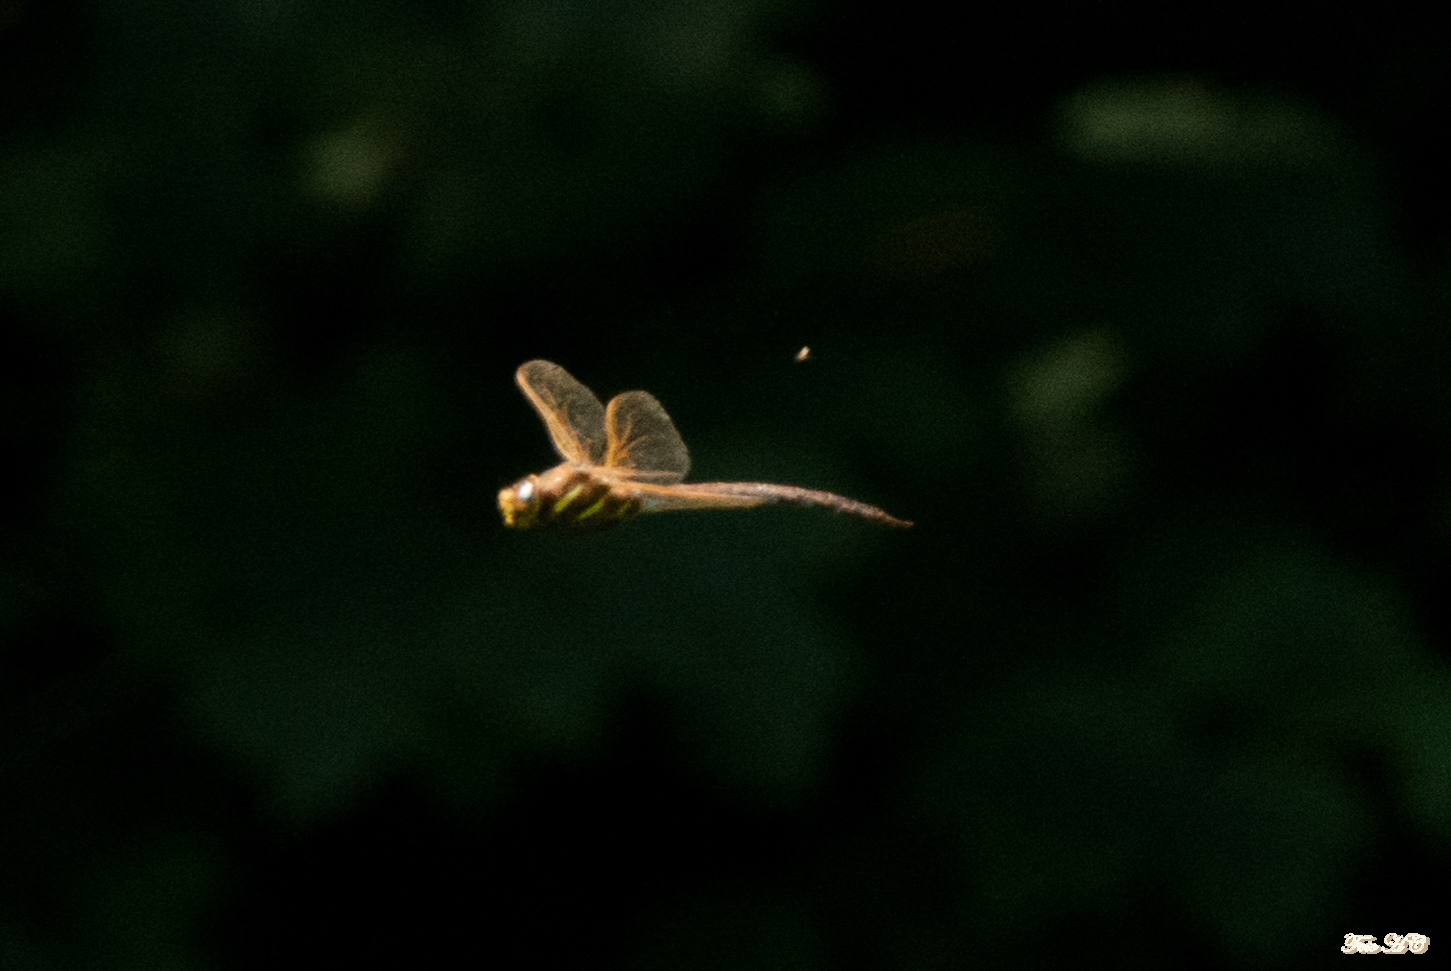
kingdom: Animalia
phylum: Arthropoda
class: Insecta
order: Odonata
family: Aeshnidae
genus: Aeshna
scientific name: Aeshna grandis
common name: Brown hawker
